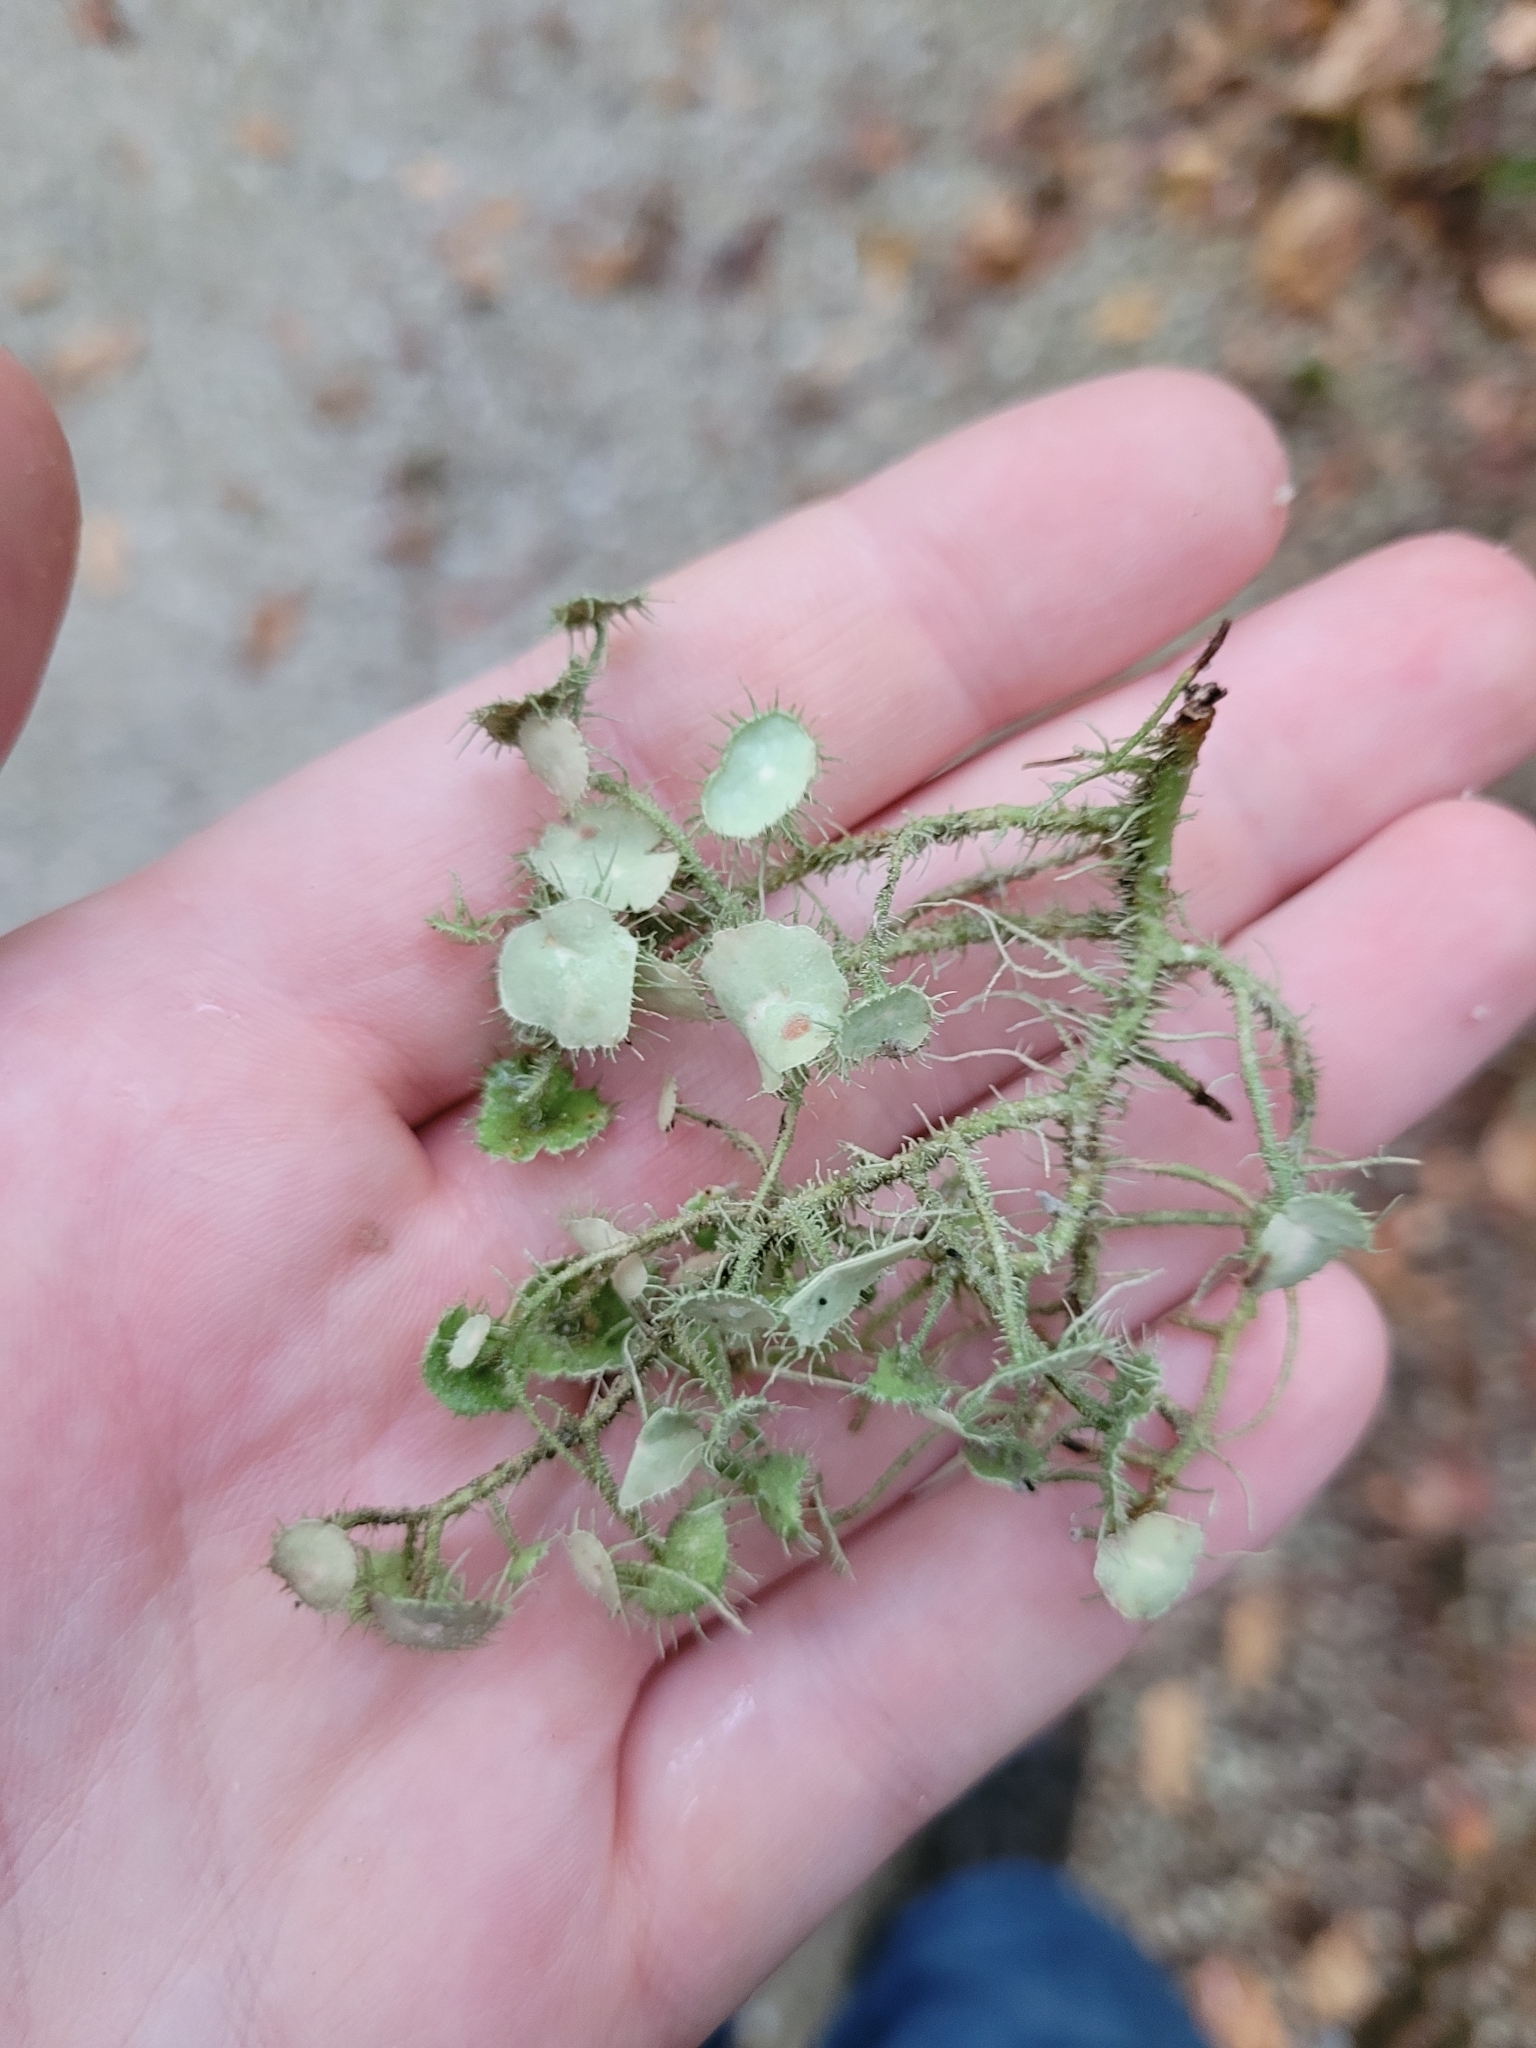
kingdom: Fungi
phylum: Ascomycota
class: Lecanoromycetes
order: Lecanorales
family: Parmeliaceae
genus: Usnea
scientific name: Usnea
